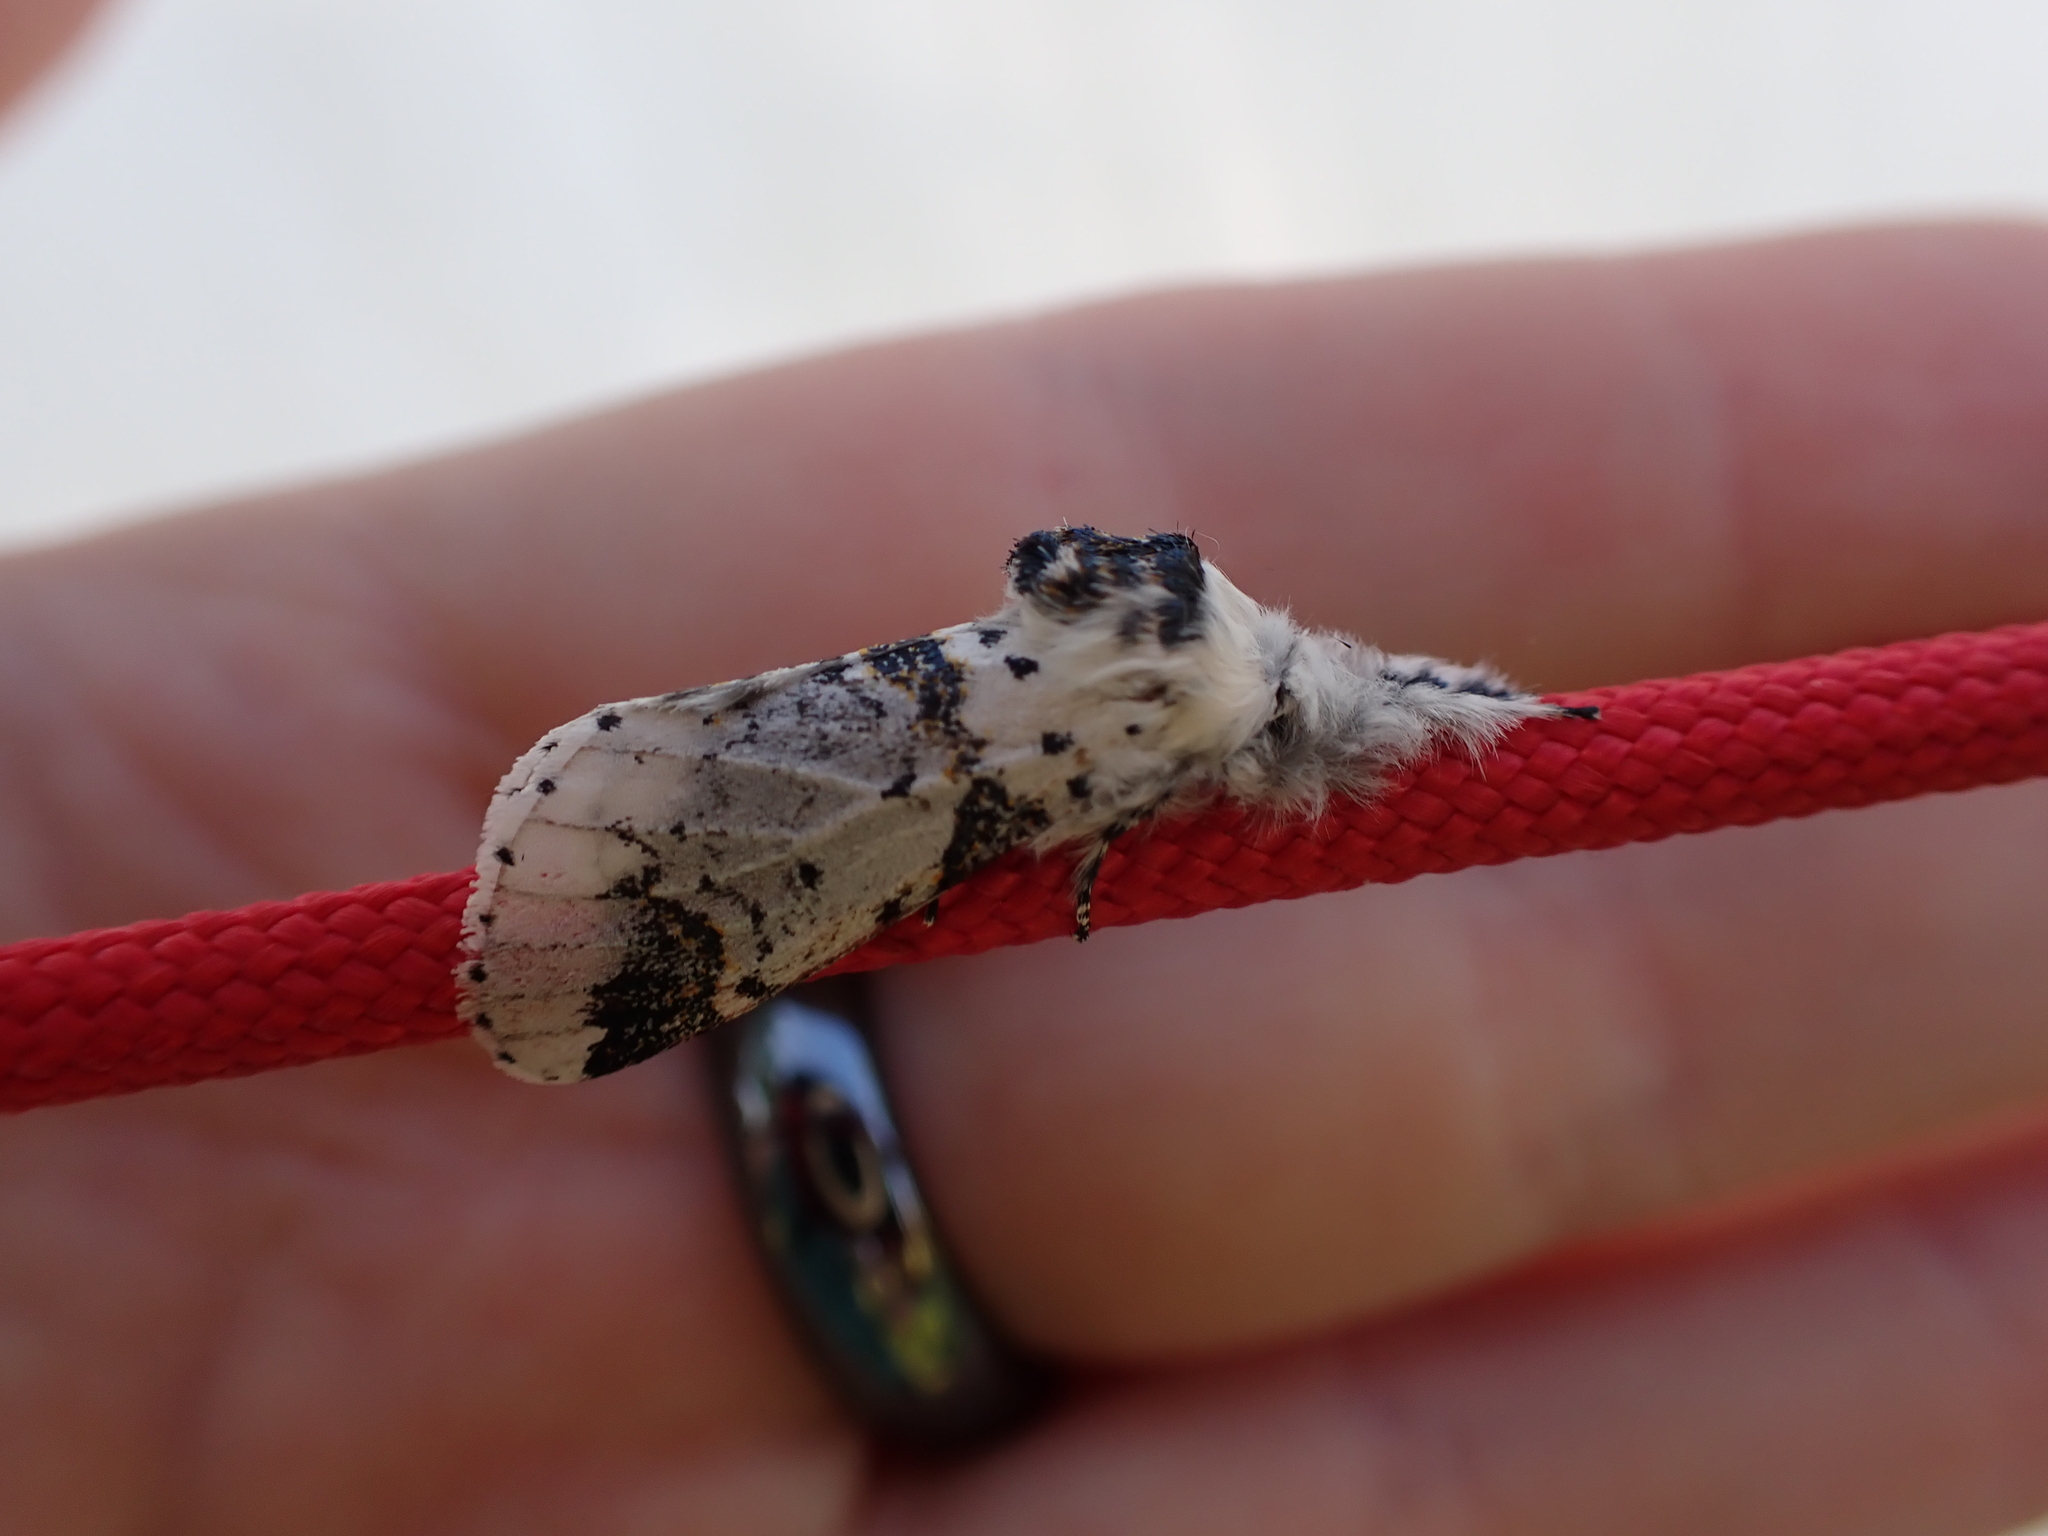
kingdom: Animalia
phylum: Arthropoda
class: Insecta
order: Lepidoptera
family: Notodontidae
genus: Furcula
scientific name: Furcula scolopendrina
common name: Zigzag furcula moth
